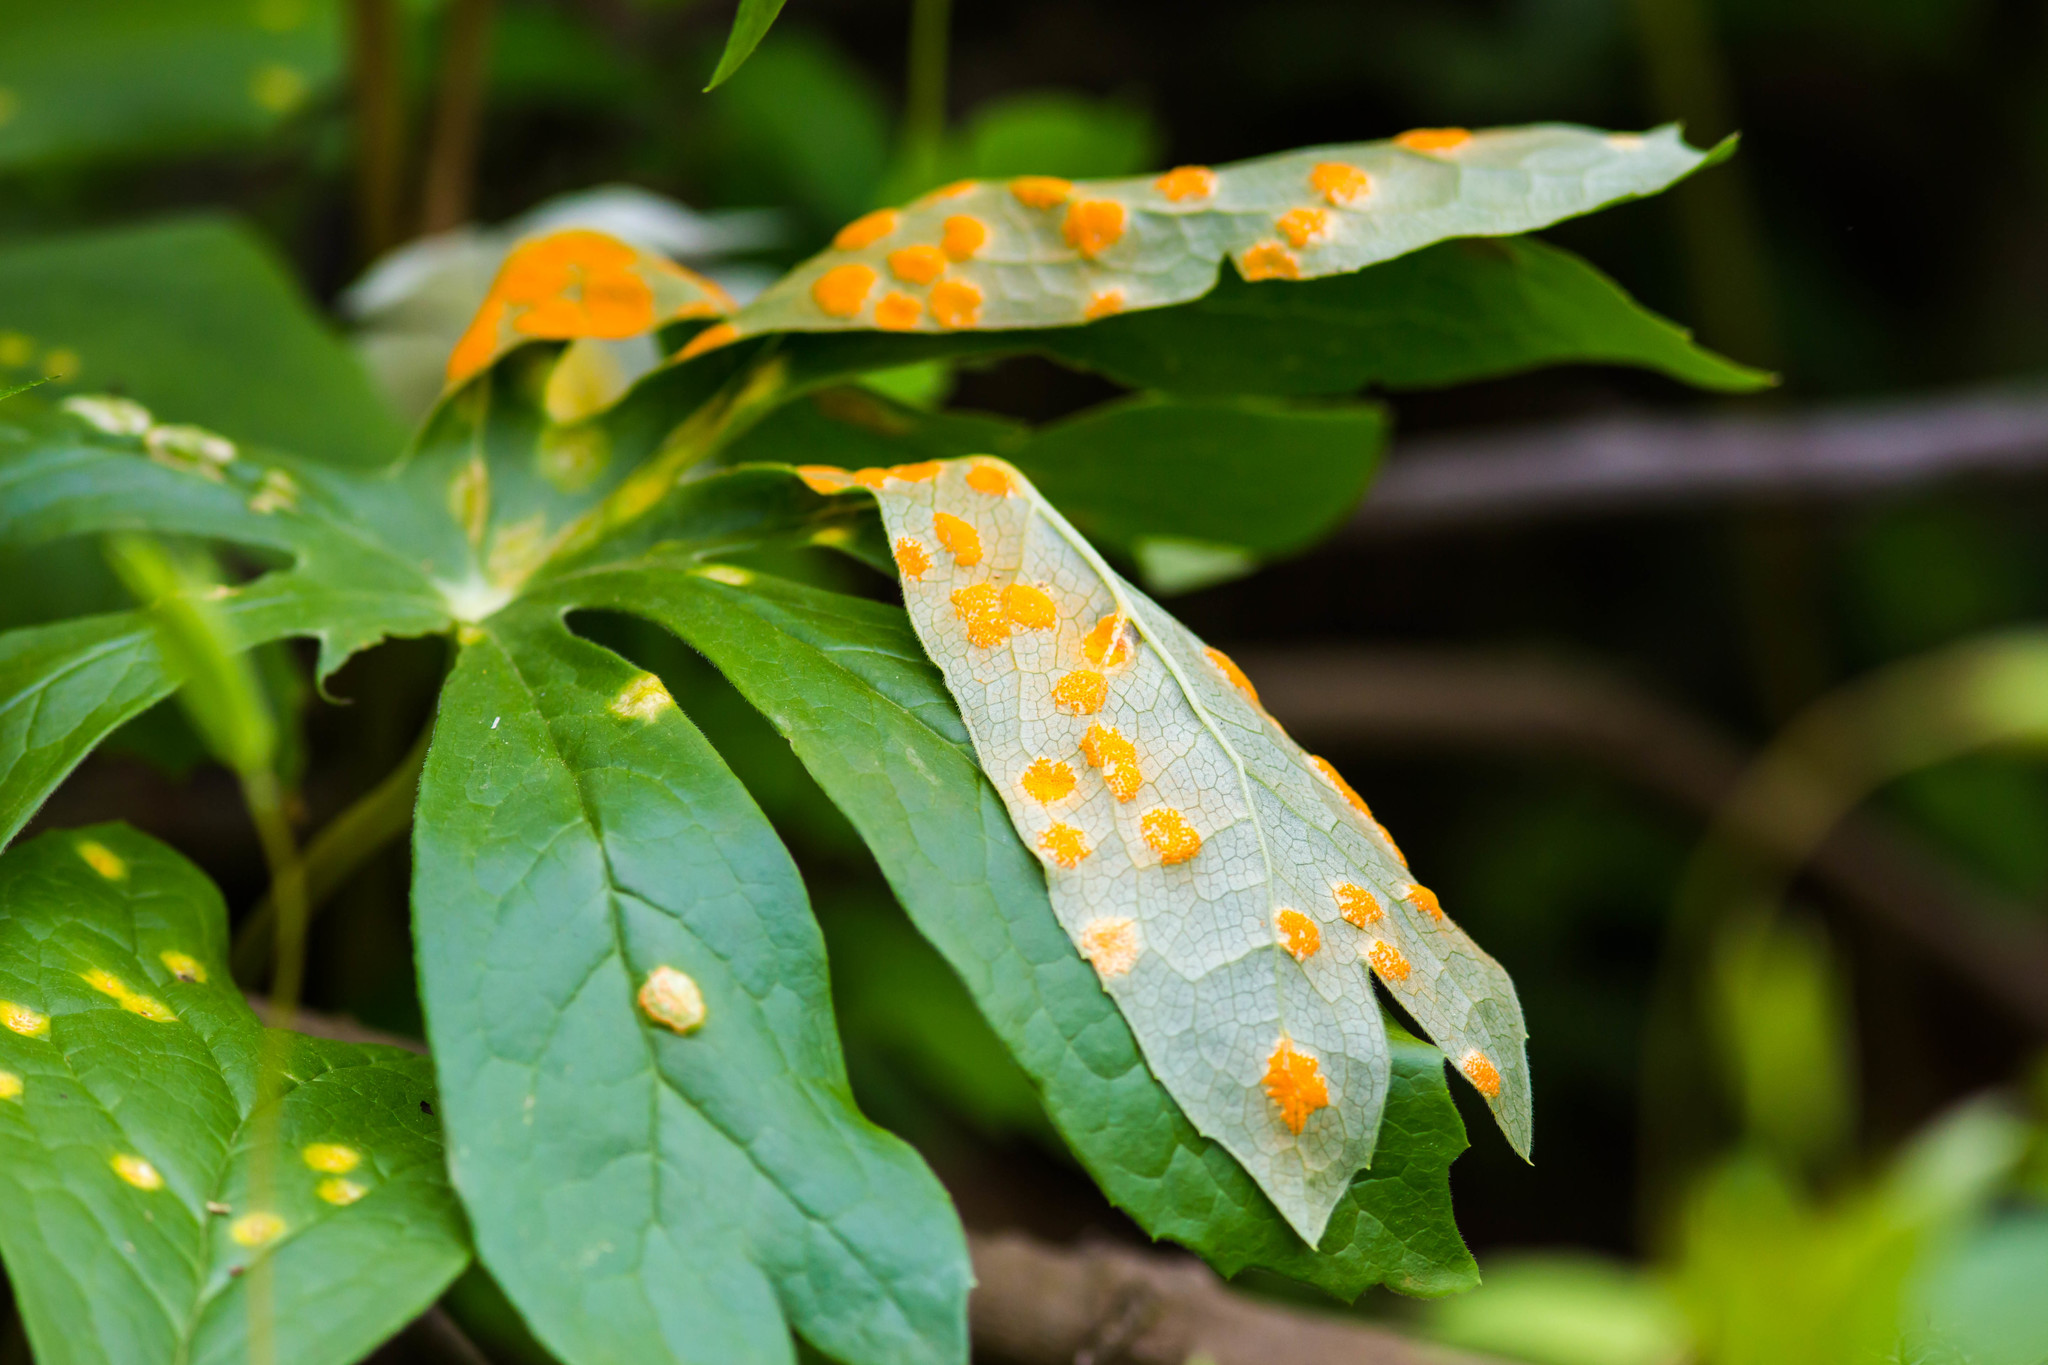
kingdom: Fungi
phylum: Basidiomycota
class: Pucciniomycetes
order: Pucciniales
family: Pucciniaceae
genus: Puccinia
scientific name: Puccinia podophylli
